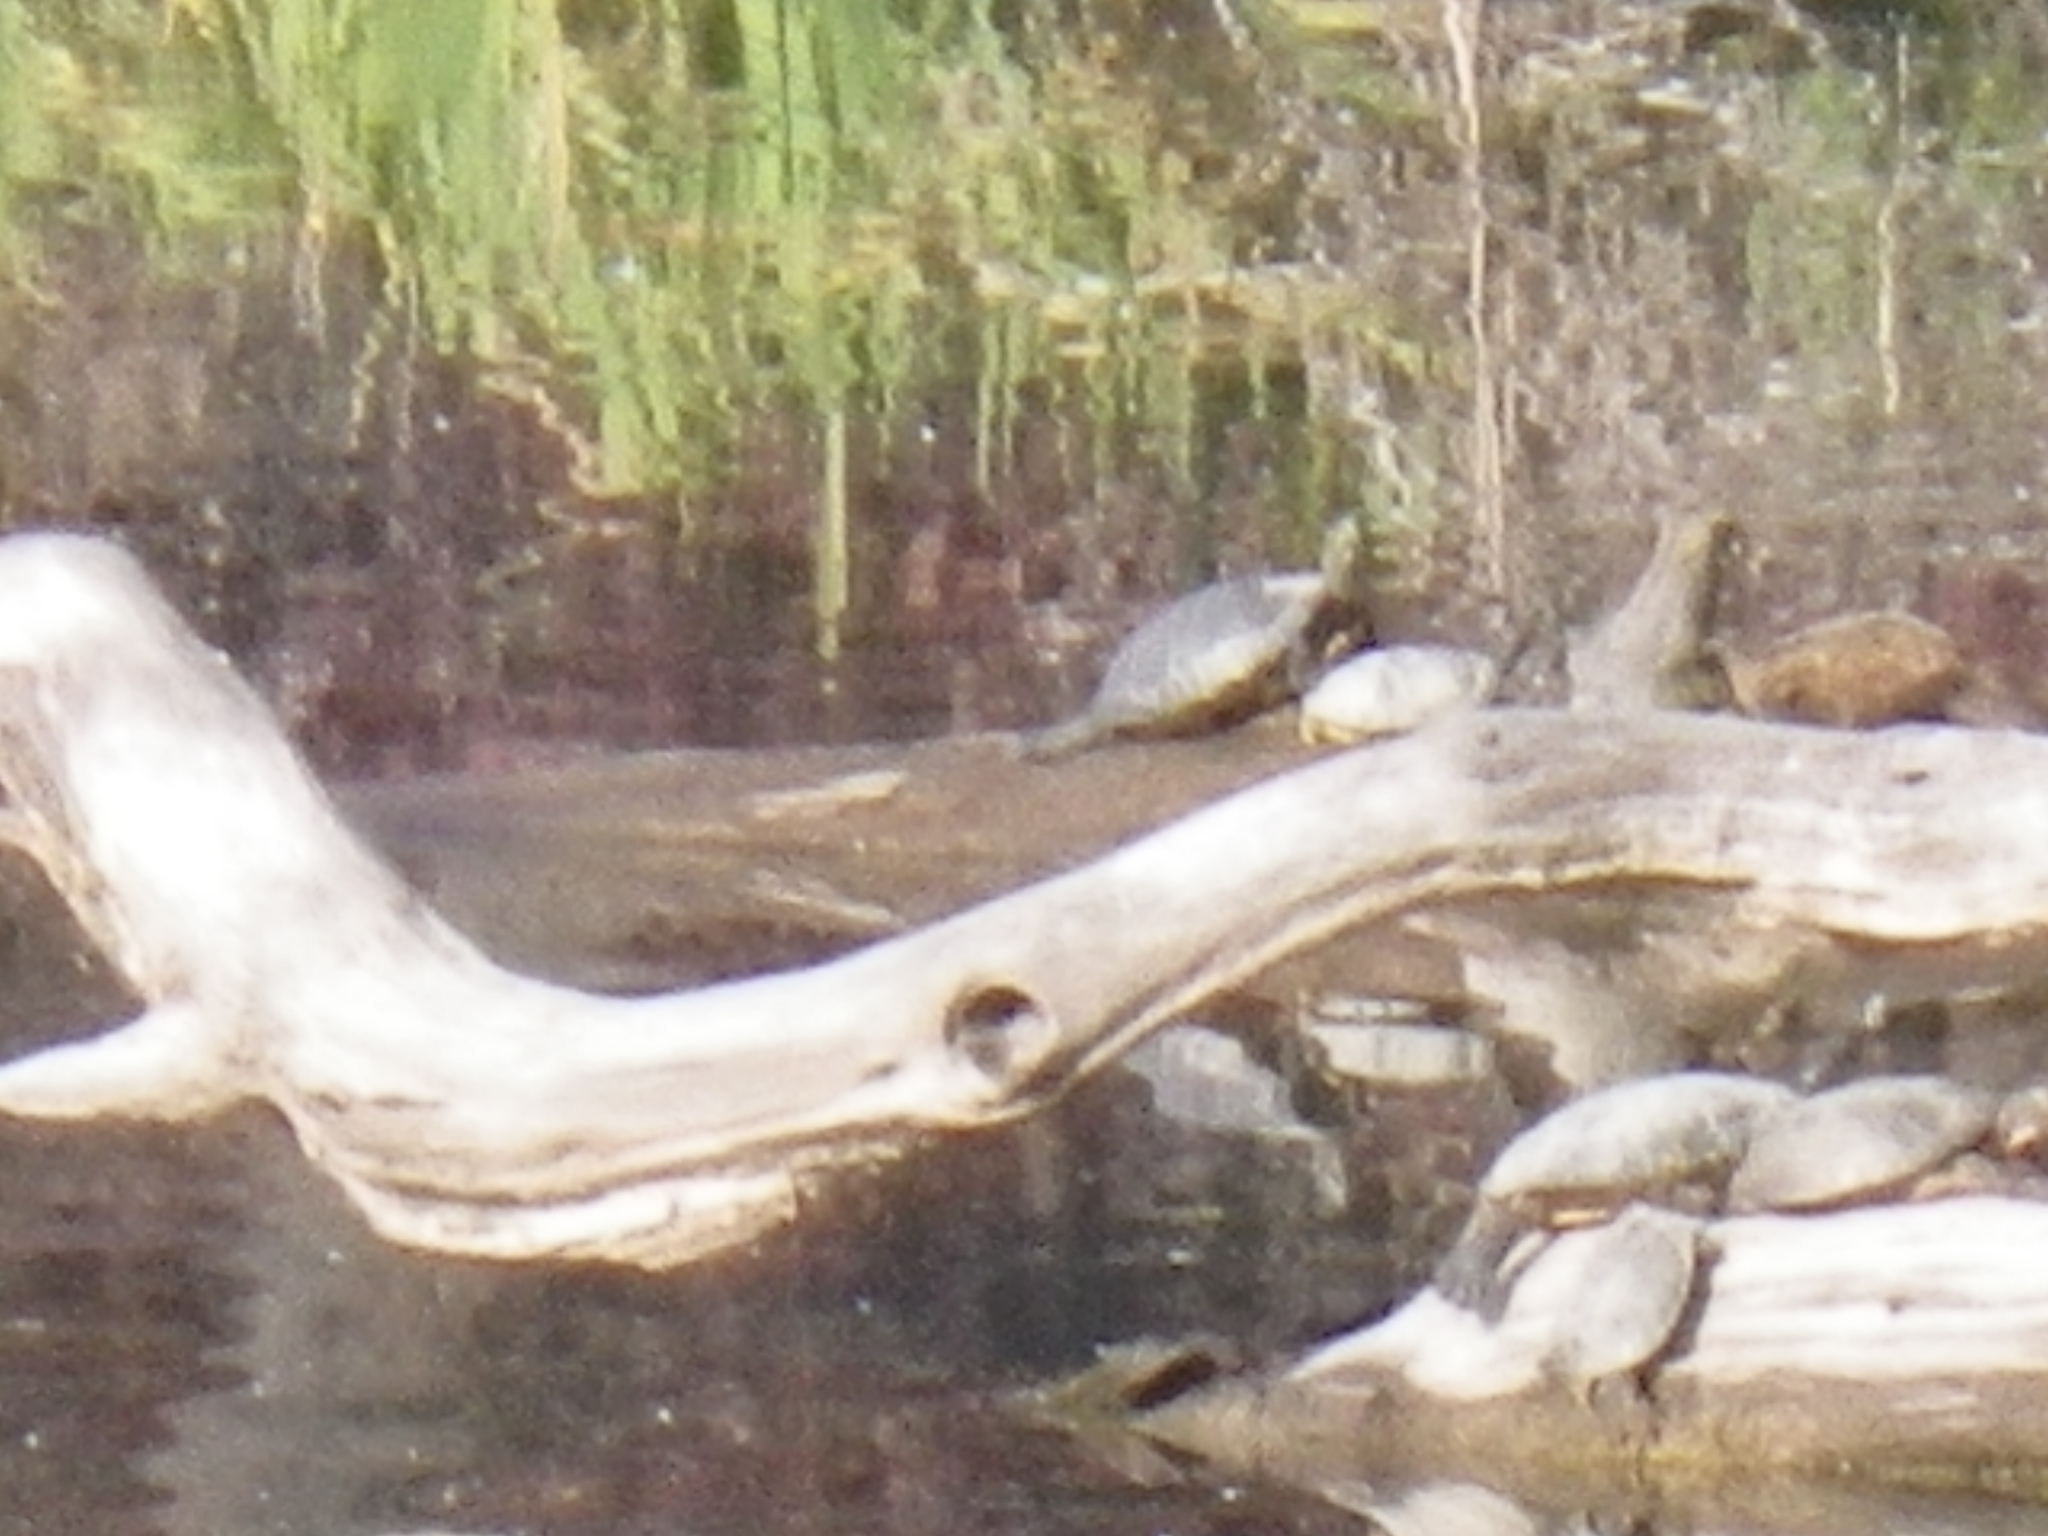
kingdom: Animalia
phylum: Chordata
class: Testudines
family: Emydidae
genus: Actinemys
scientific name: Actinemys marmorata
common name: Western pond turtle
